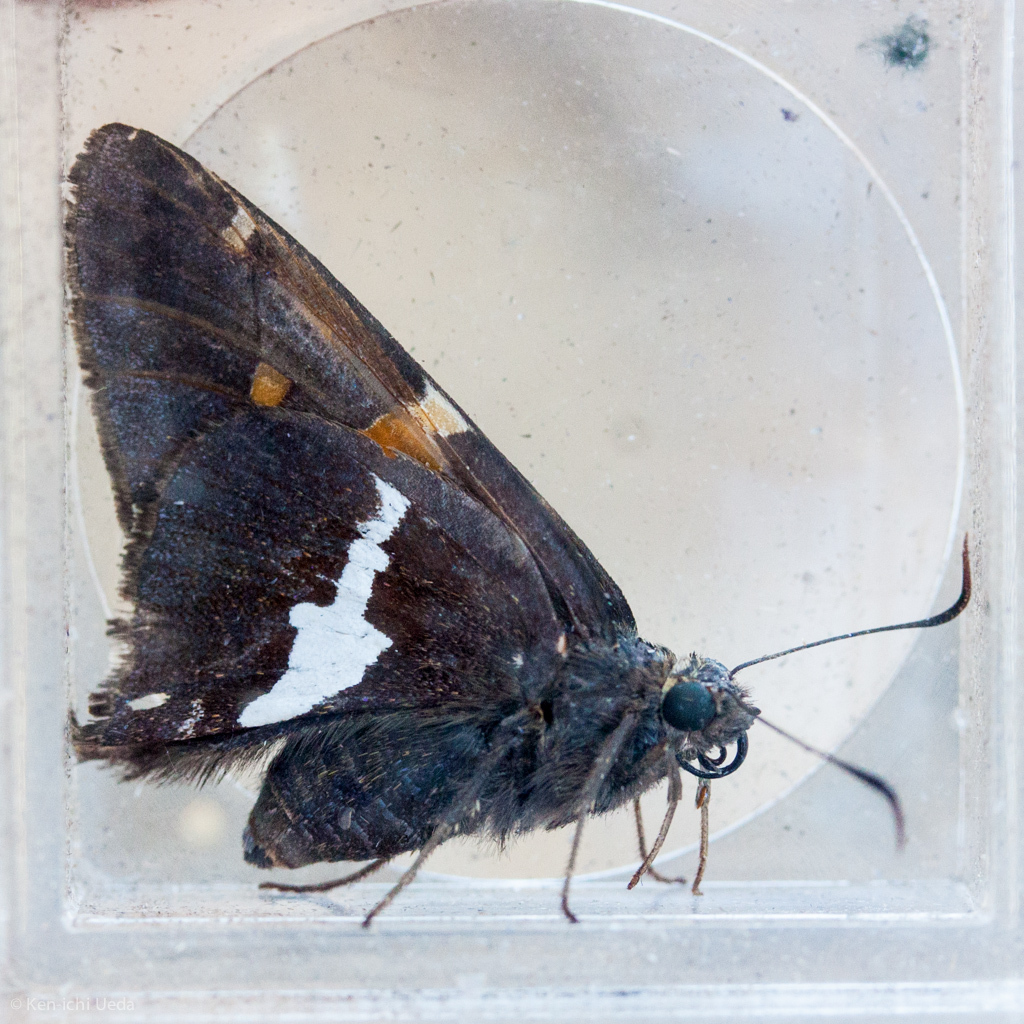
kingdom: Animalia
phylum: Arthropoda
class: Insecta
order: Lepidoptera
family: Hesperiidae
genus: Epargyreus
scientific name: Epargyreus clarus
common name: Silver-spotted skipper
